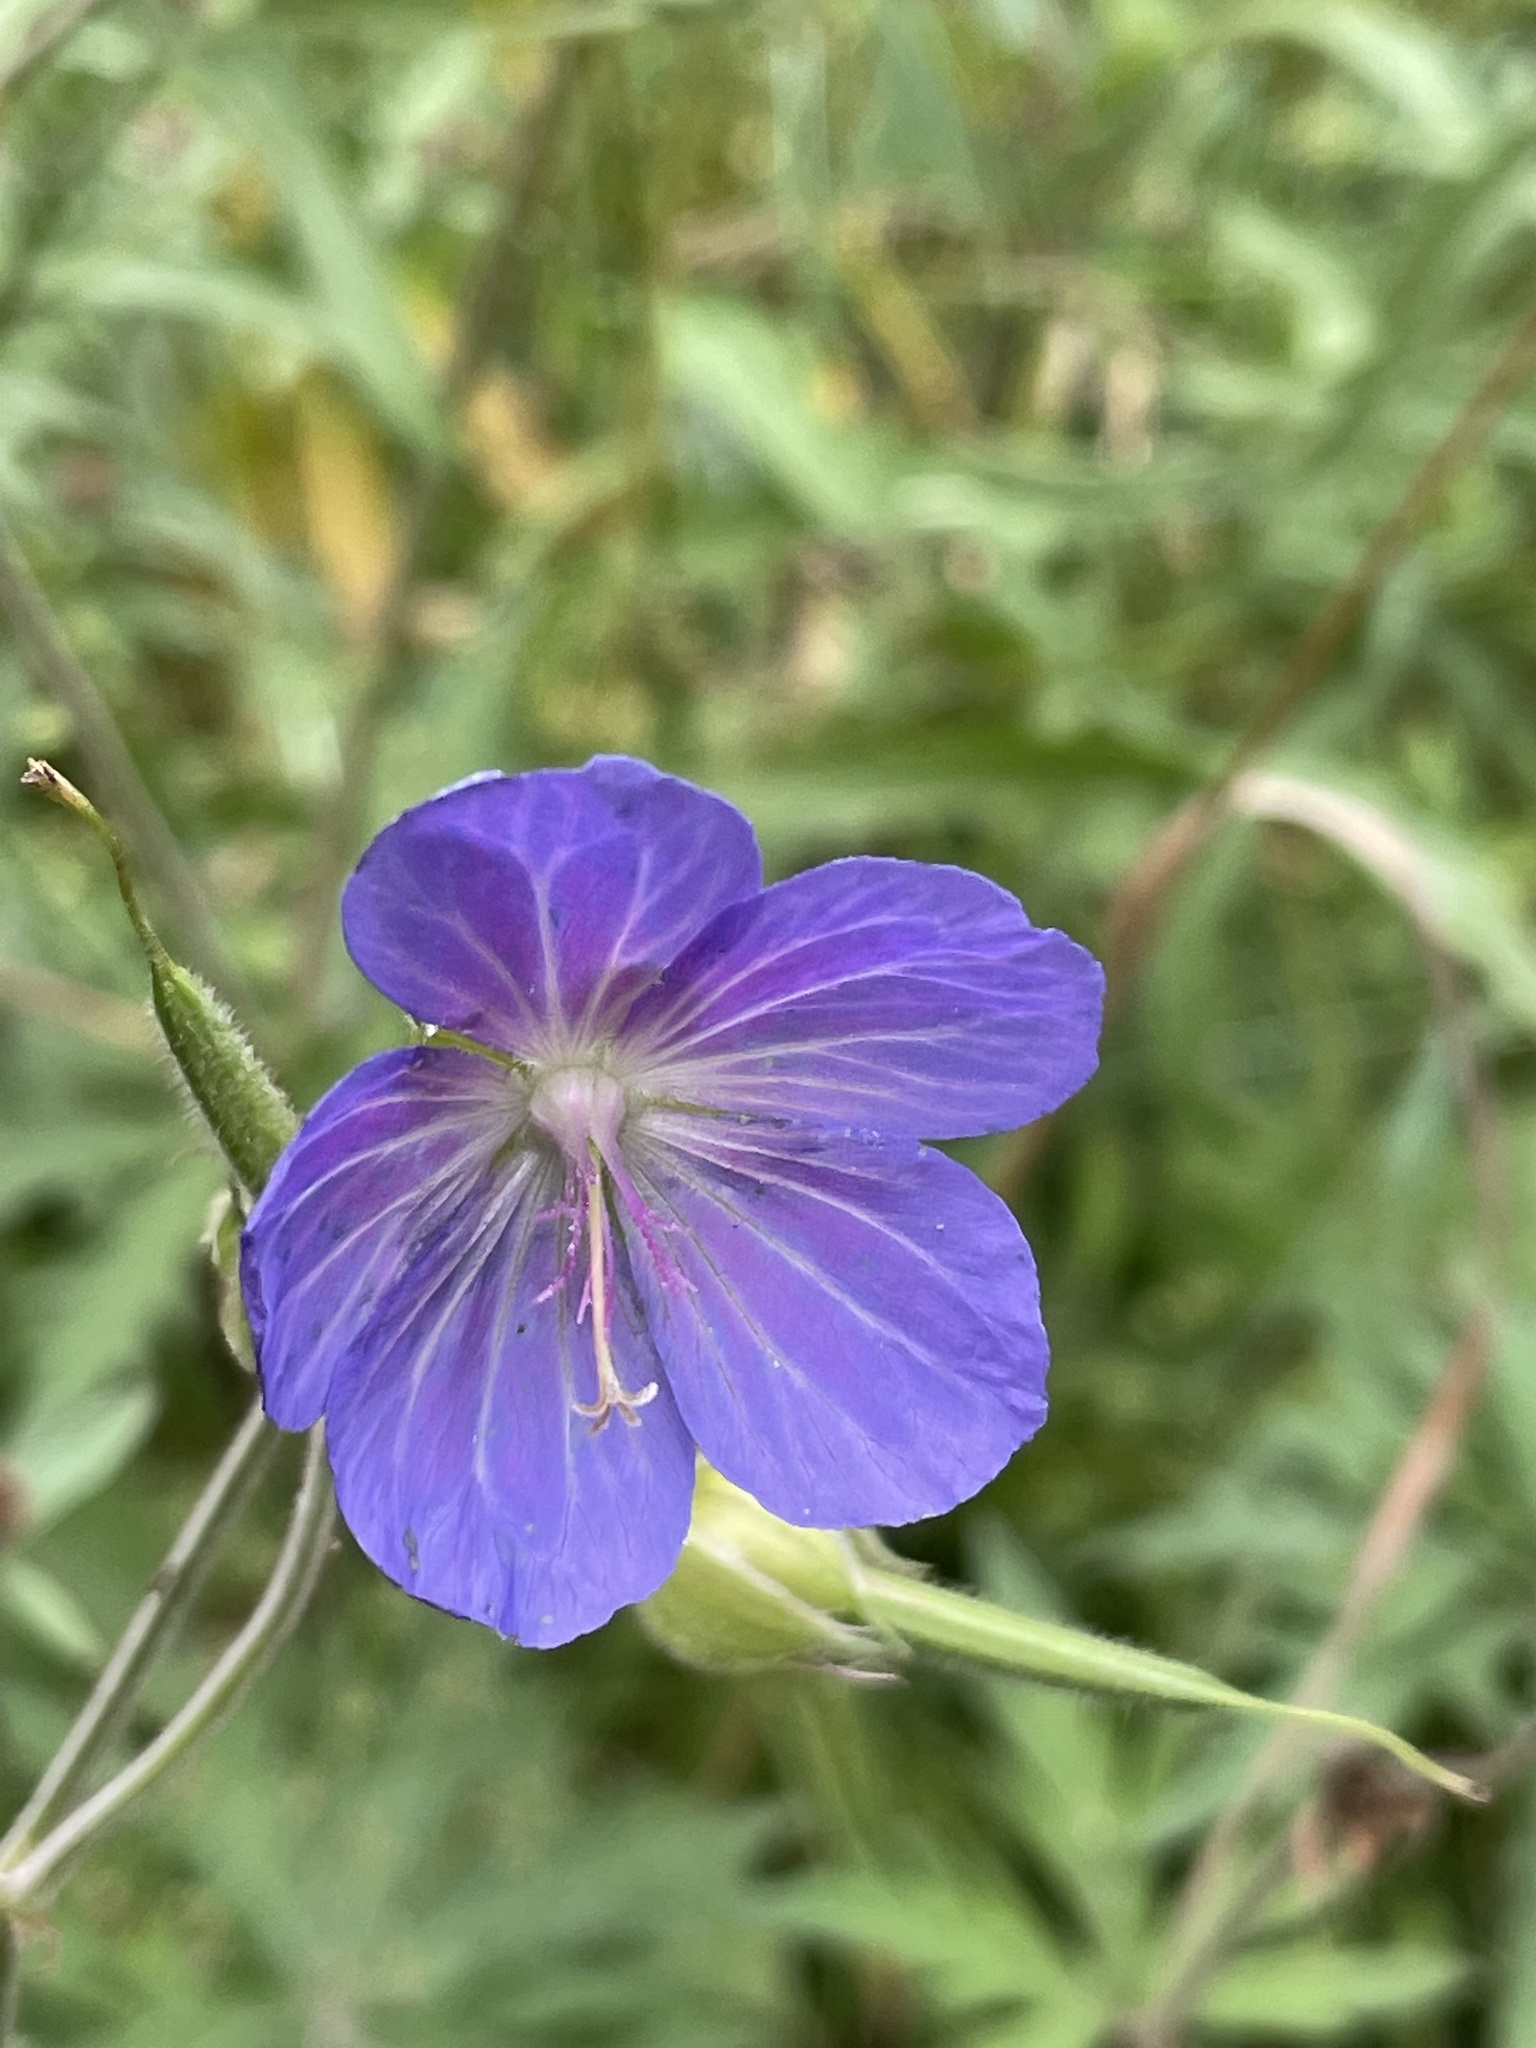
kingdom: Plantae
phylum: Tracheophyta
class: Magnoliopsida
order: Geraniales
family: Geraniaceae
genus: Geranium
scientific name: Geranium pratense
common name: Meadow crane's-bill
